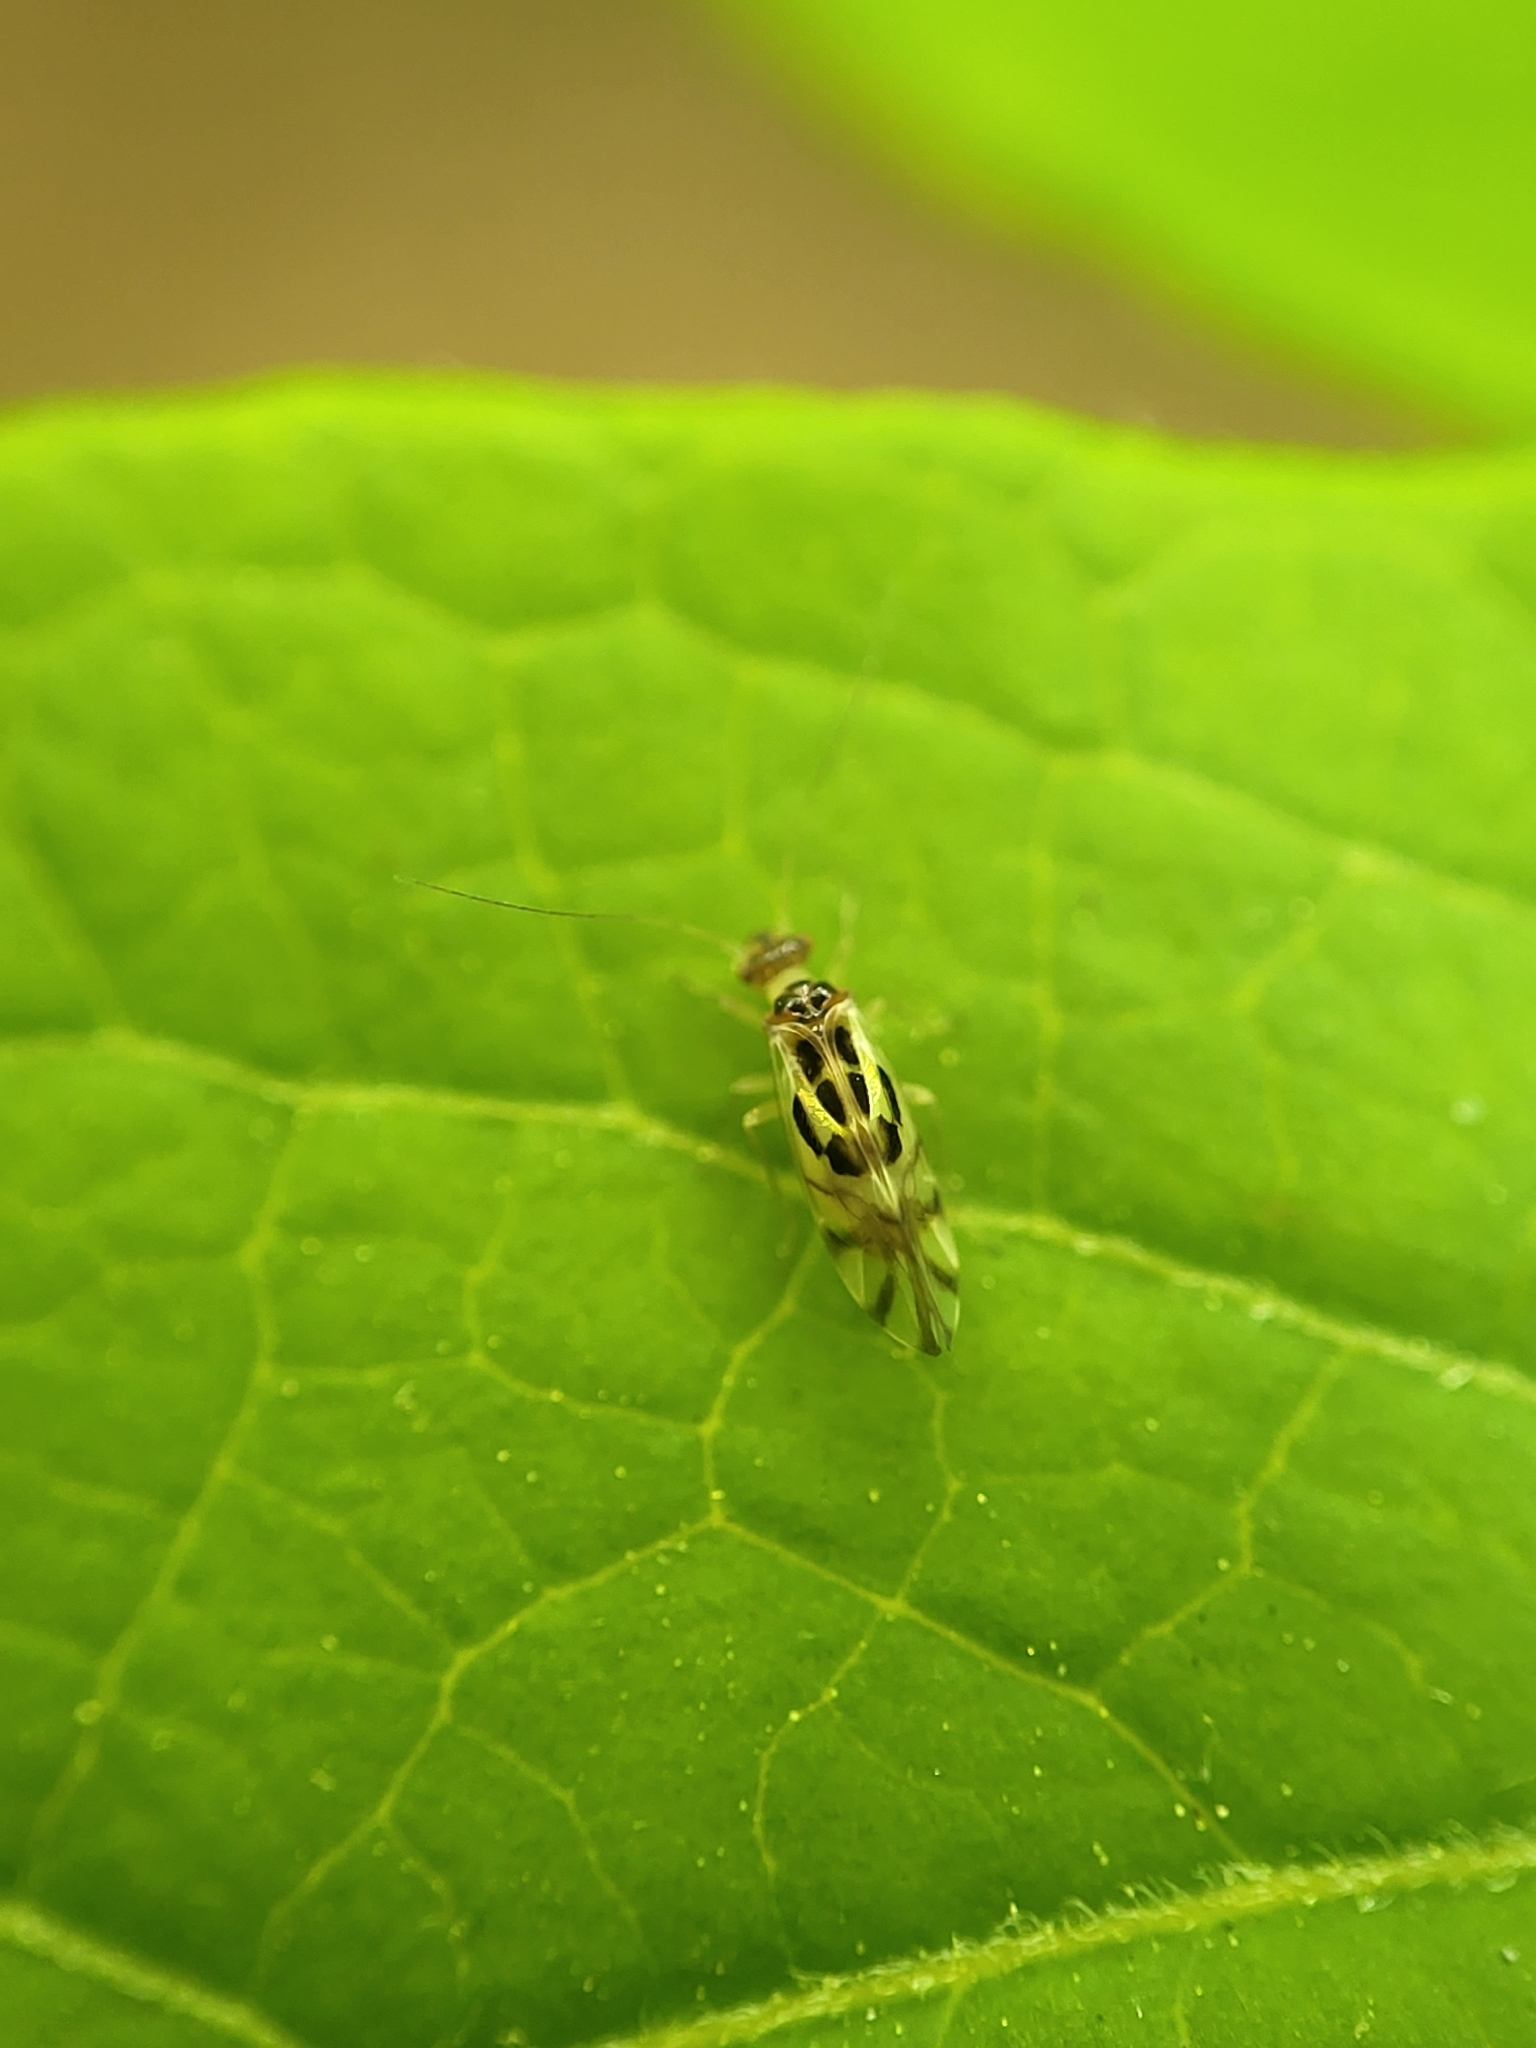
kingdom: Animalia
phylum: Arthropoda
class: Insecta
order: Psocodea
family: Stenopsocidae
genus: Graphopsocus
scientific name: Graphopsocus cruciatus
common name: Lizard bark louse
